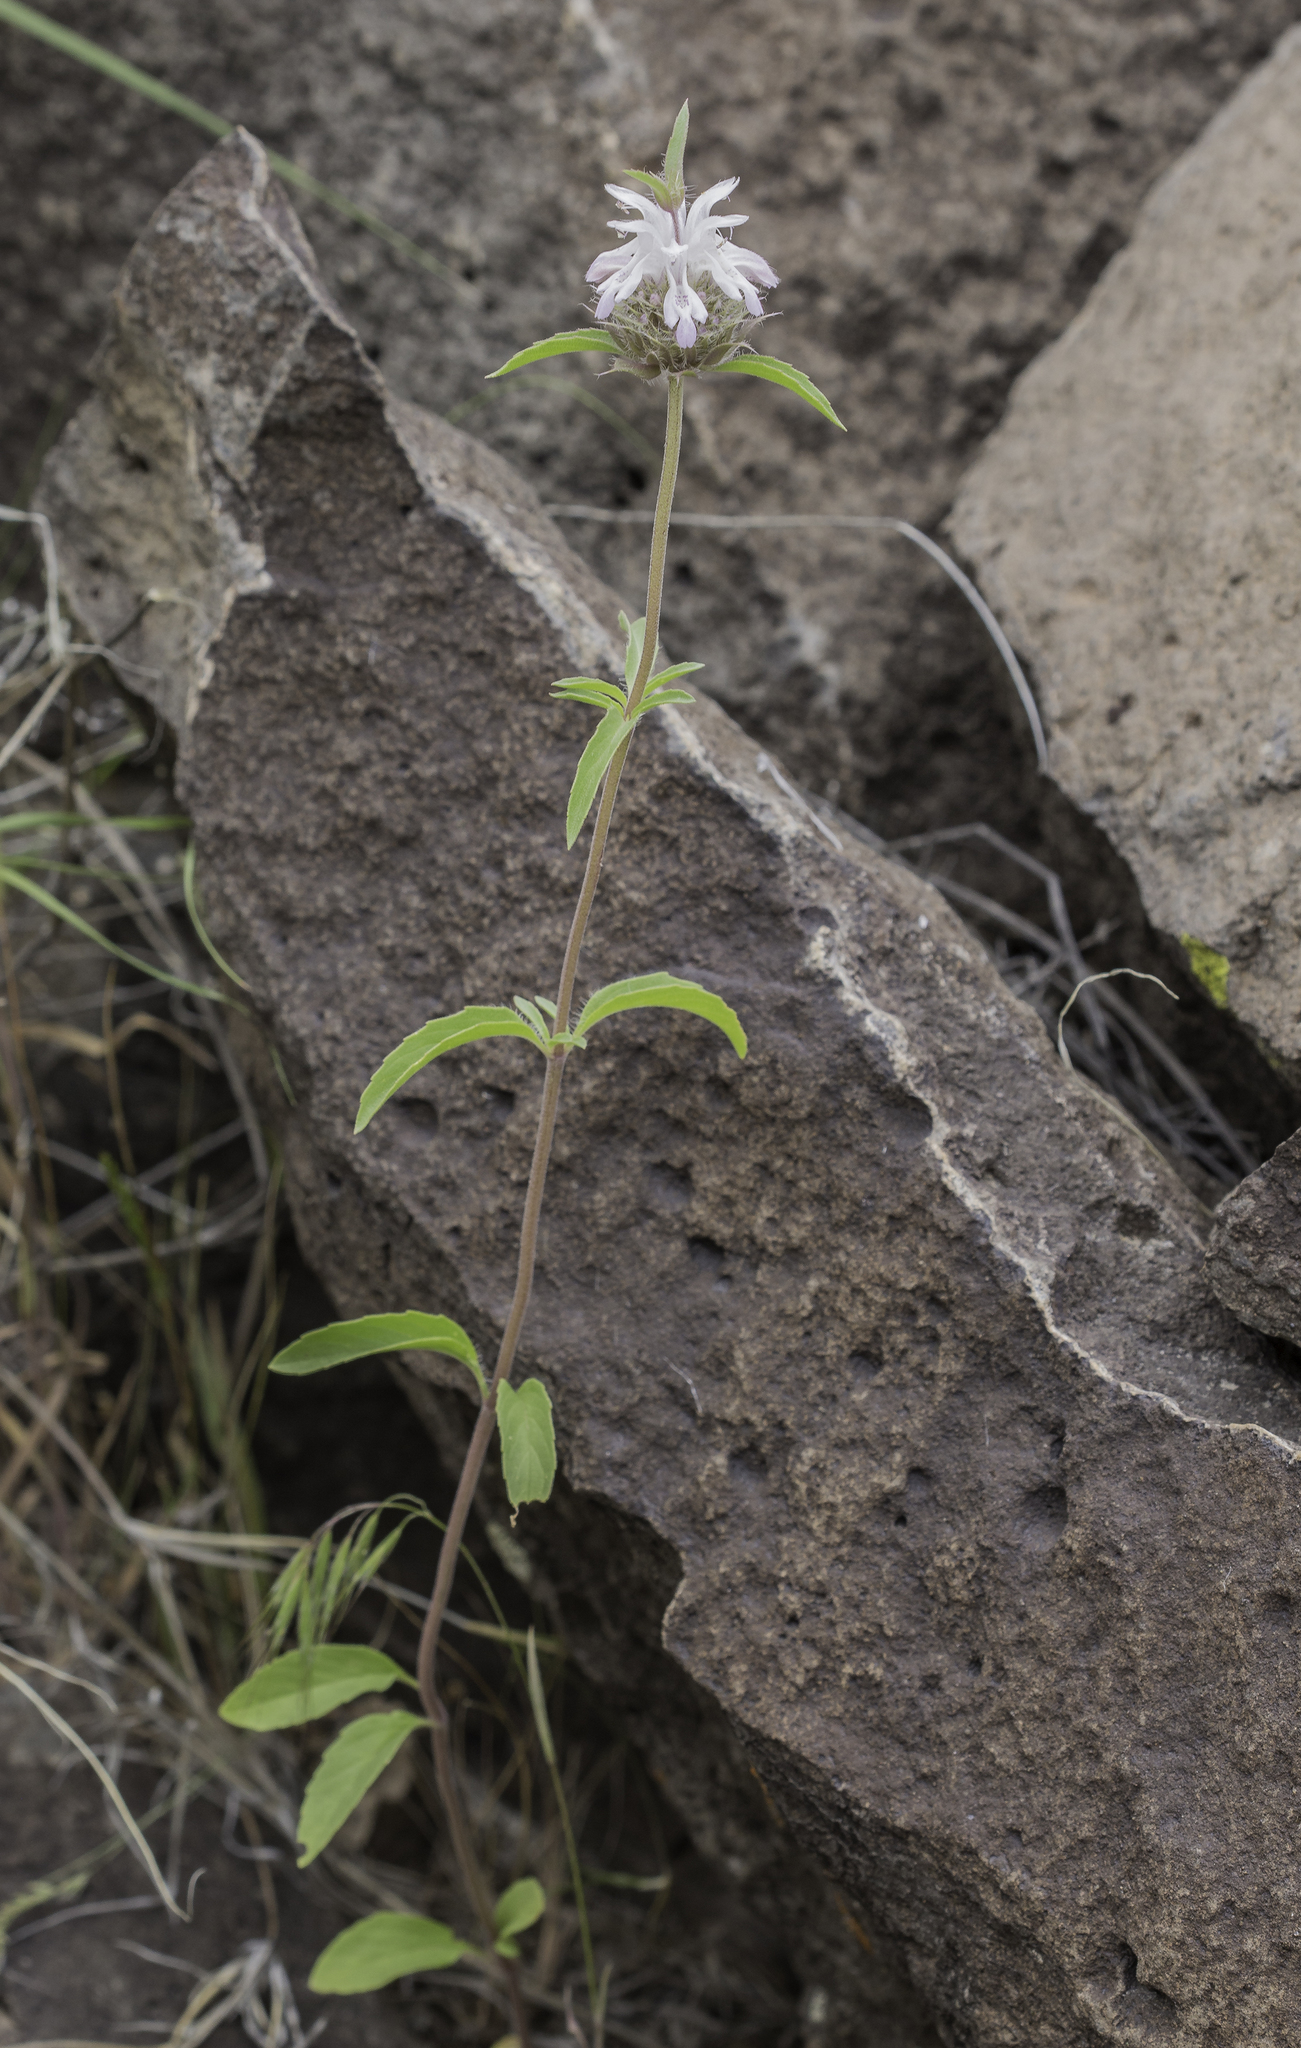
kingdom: Plantae
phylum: Tracheophyta
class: Magnoliopsida
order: Lamiales
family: Lamiaceae
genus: Monarda
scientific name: Monarda pectinata
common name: Plains beebalm
